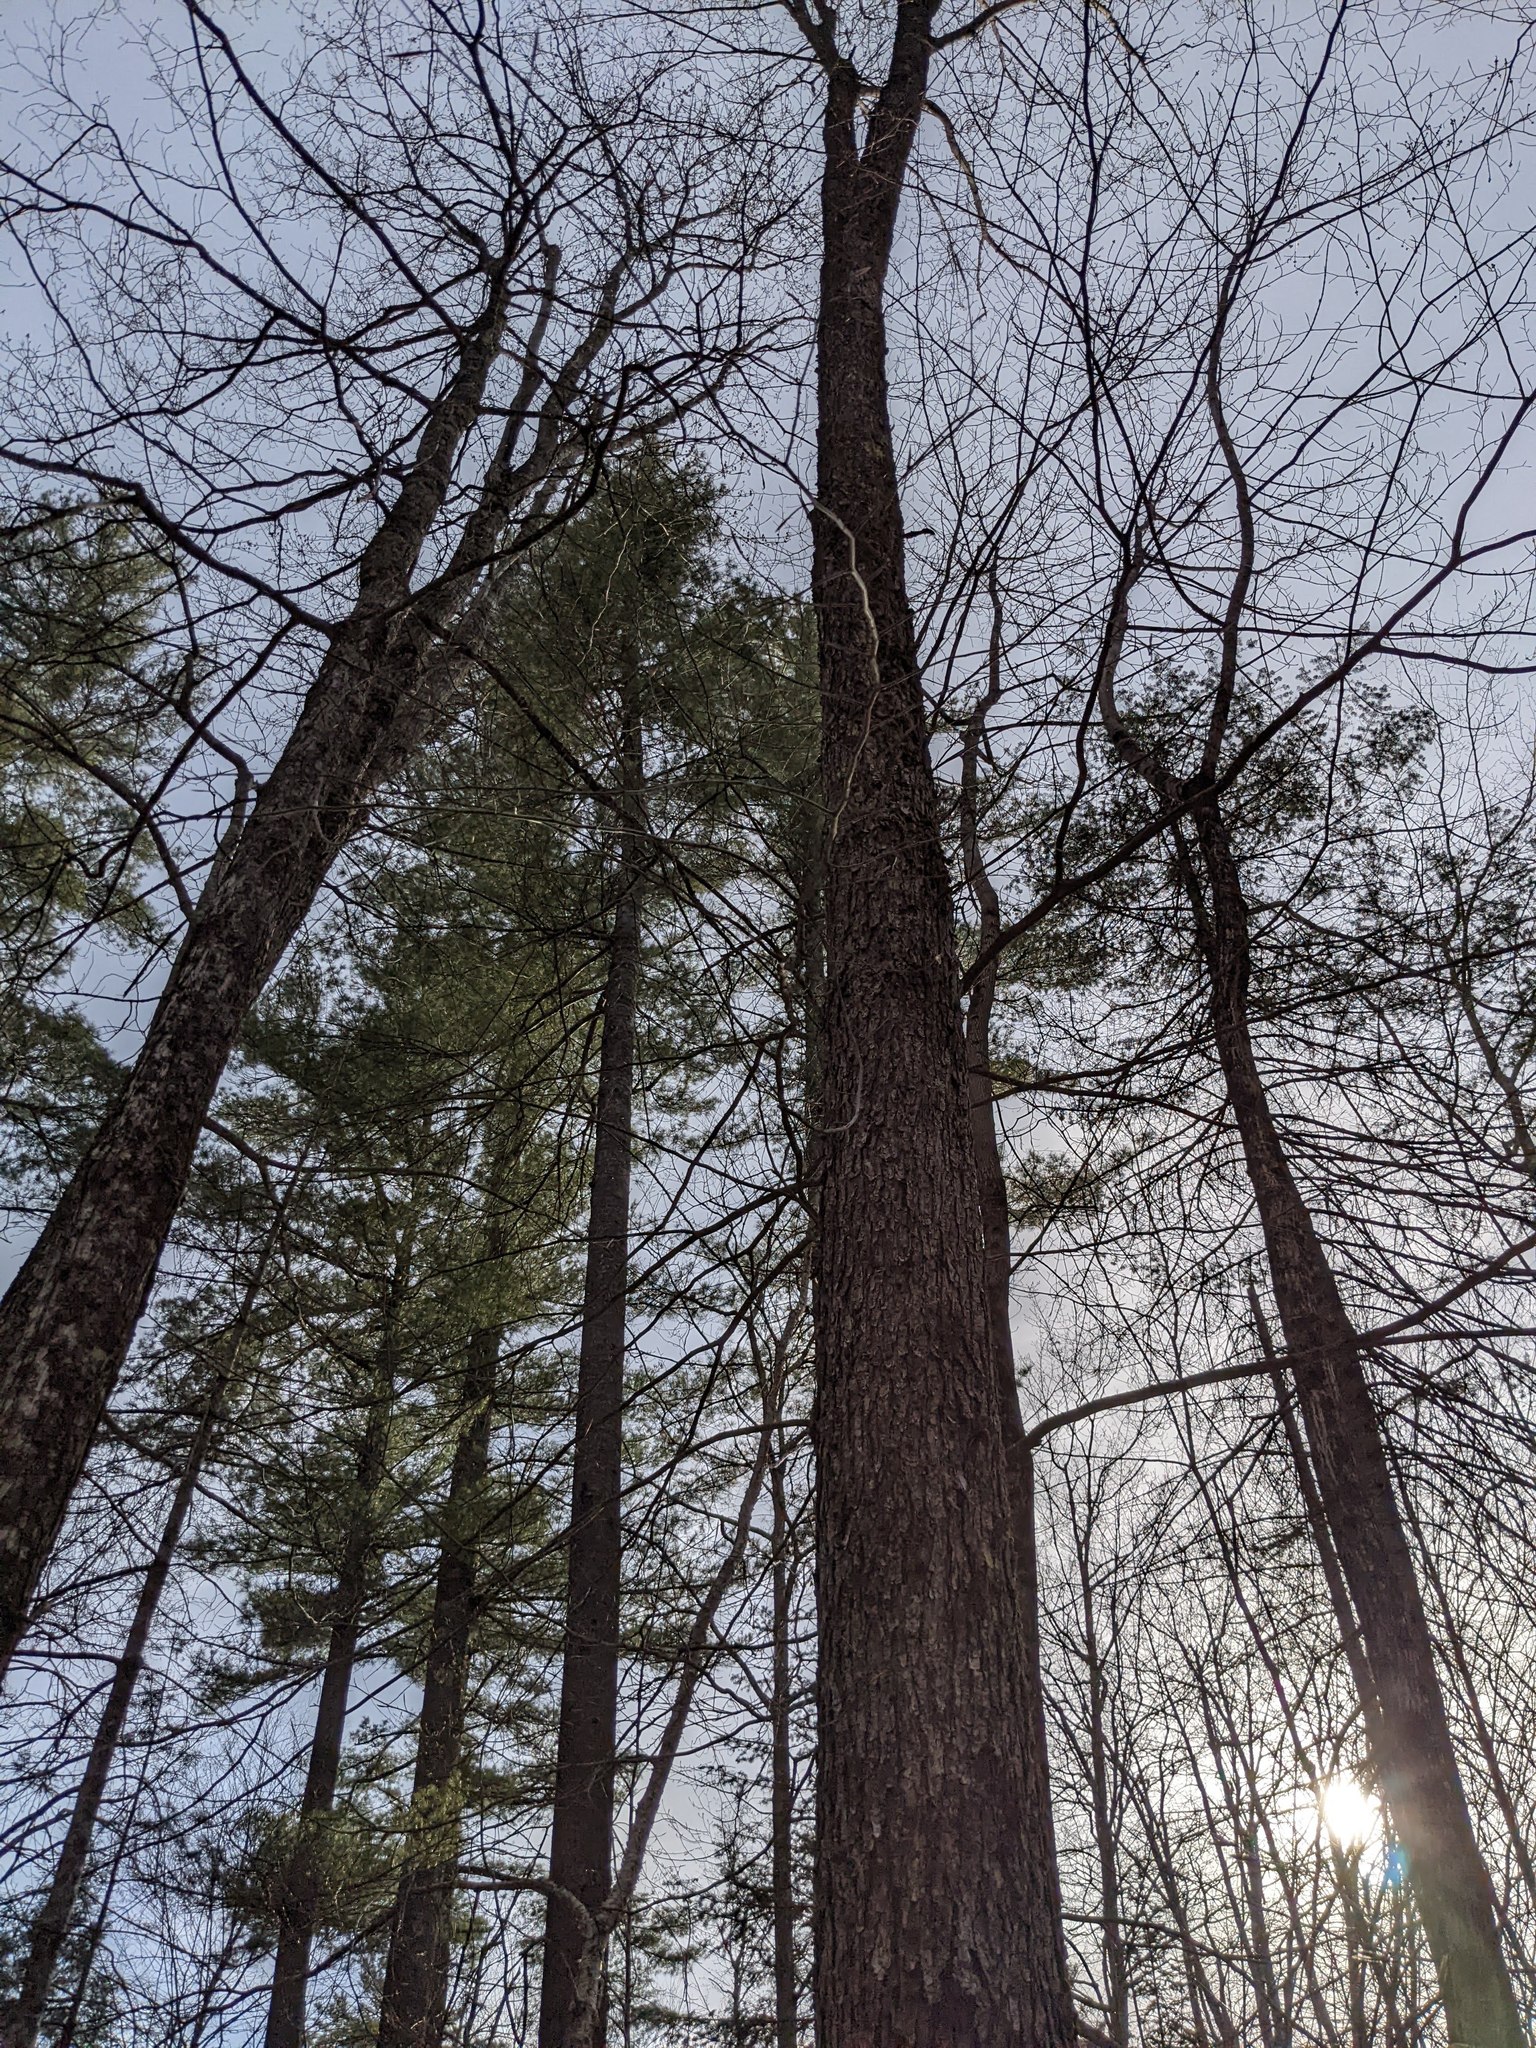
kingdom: Plantae
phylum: Tracheophyta
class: Pinopsida
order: Pinales
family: Pinaceae
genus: Pinus
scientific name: Pinus strobus
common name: Weymouth pine
